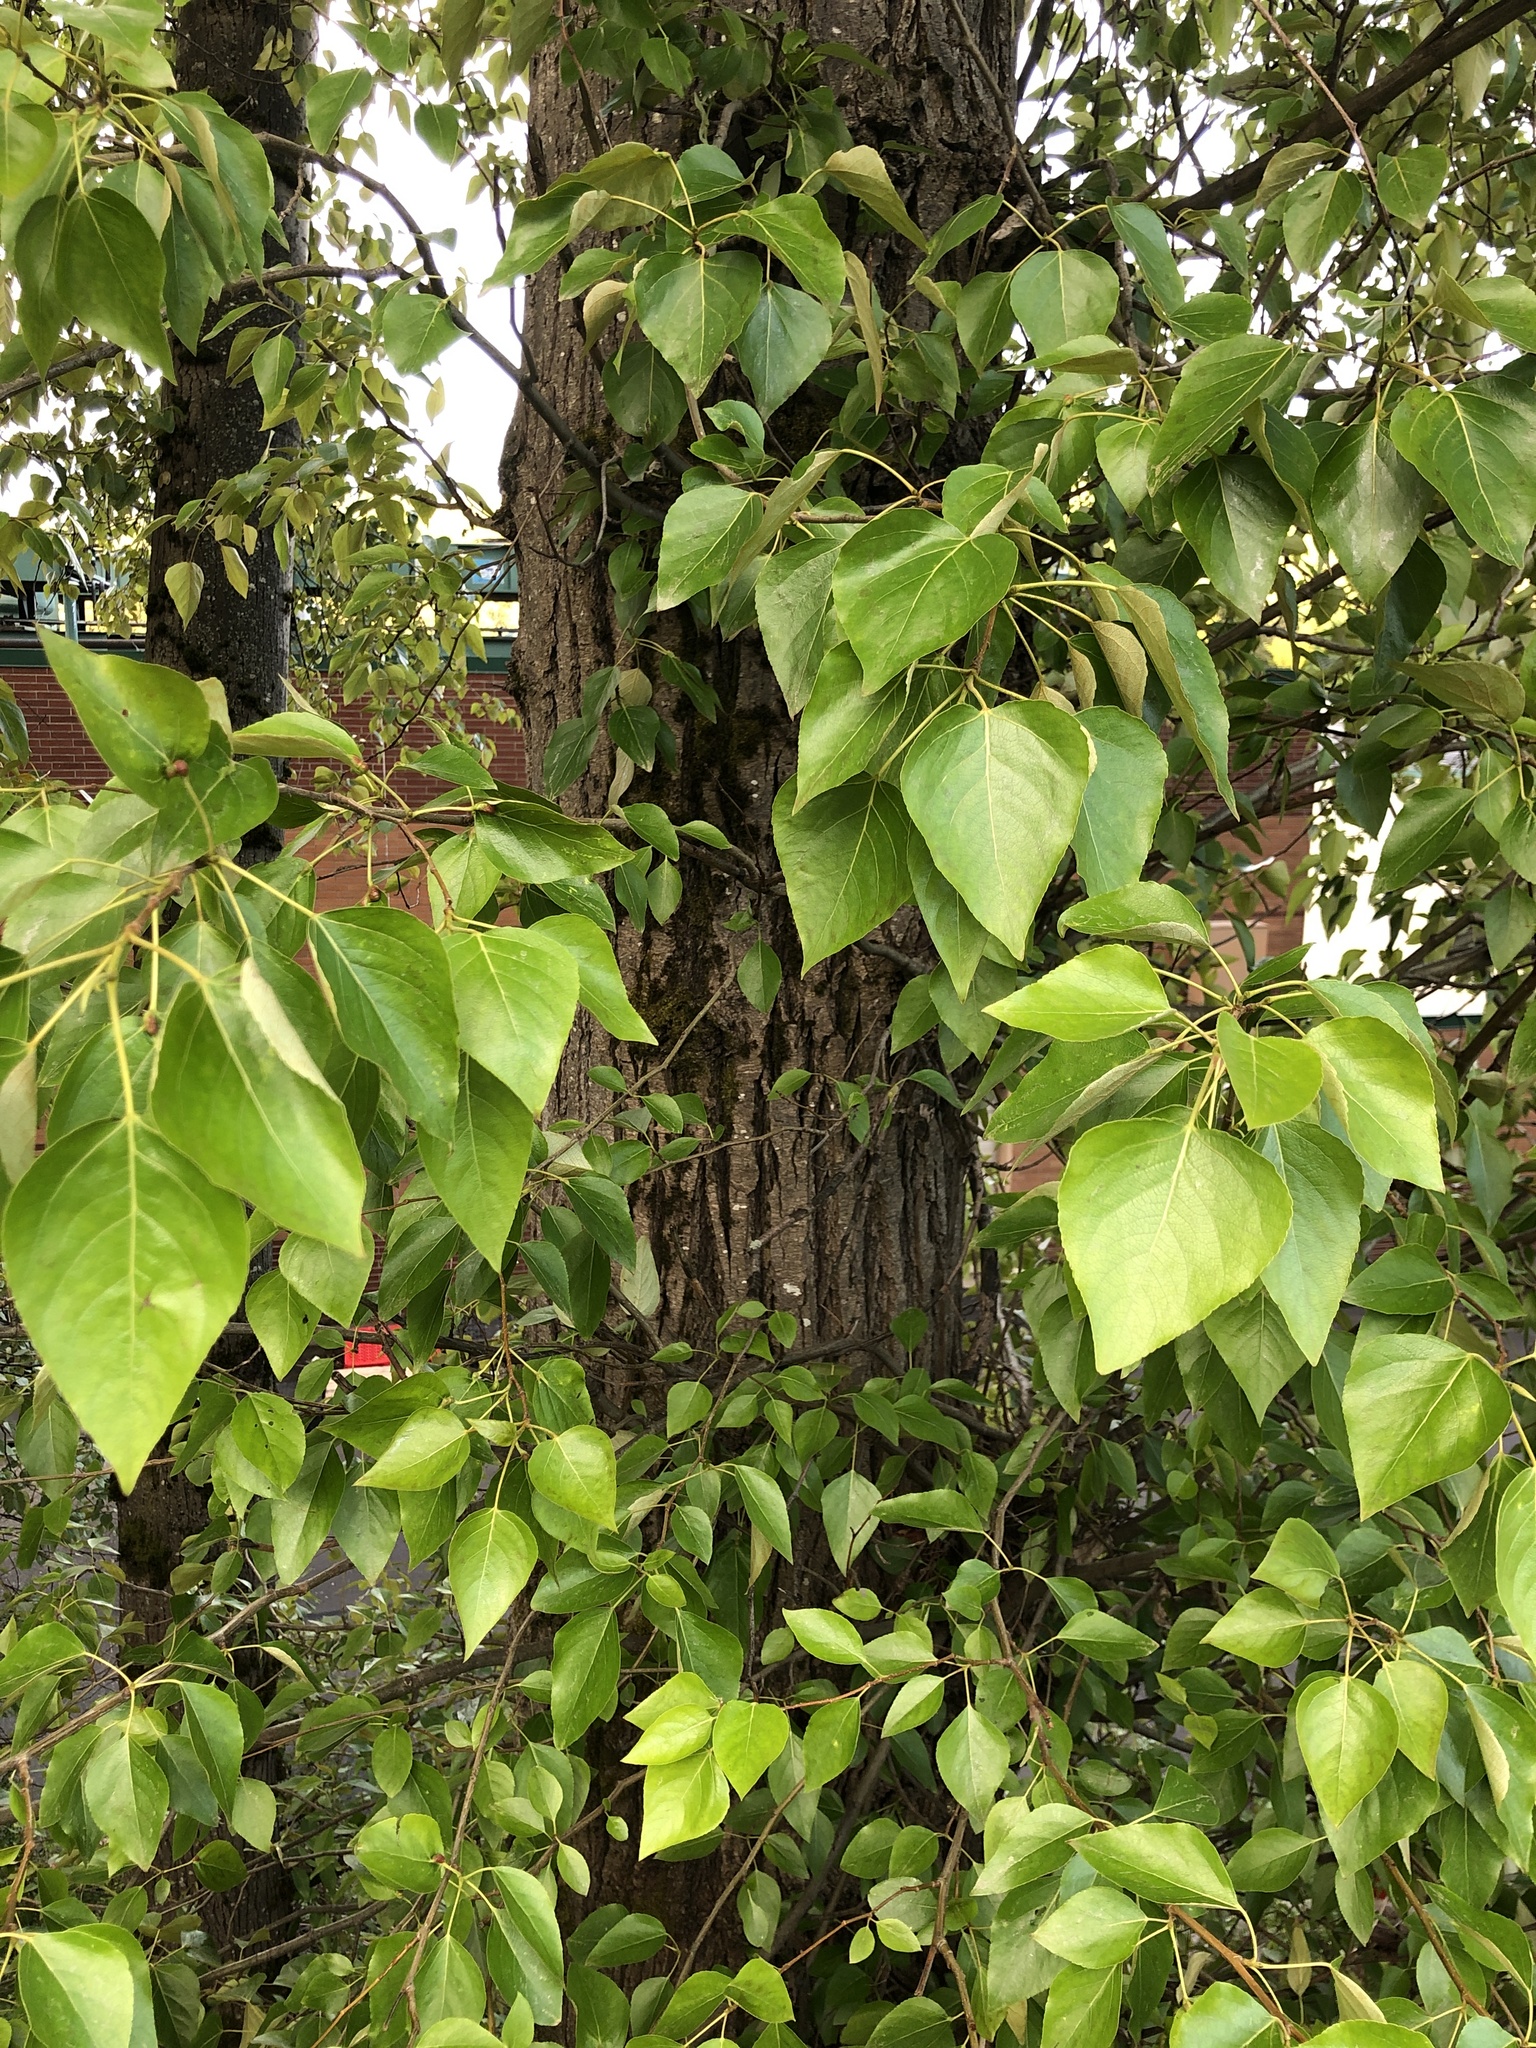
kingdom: Plantae
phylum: Tracheophyta
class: Magnoliopsida
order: Malpighiales
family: Salicaceae
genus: Populus
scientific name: Populus trichocarpa
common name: Black cottonwood
